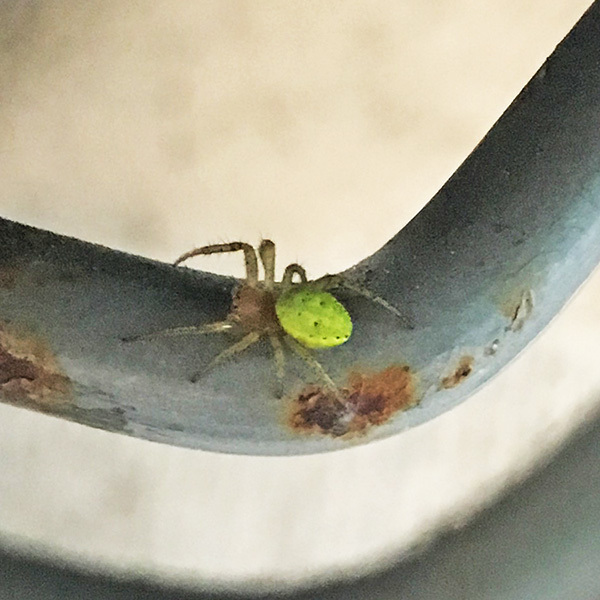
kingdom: Animalia
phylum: Arthropoda
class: Arachnida
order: Araneae
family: Araneidae
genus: Araniella
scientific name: Araniella
